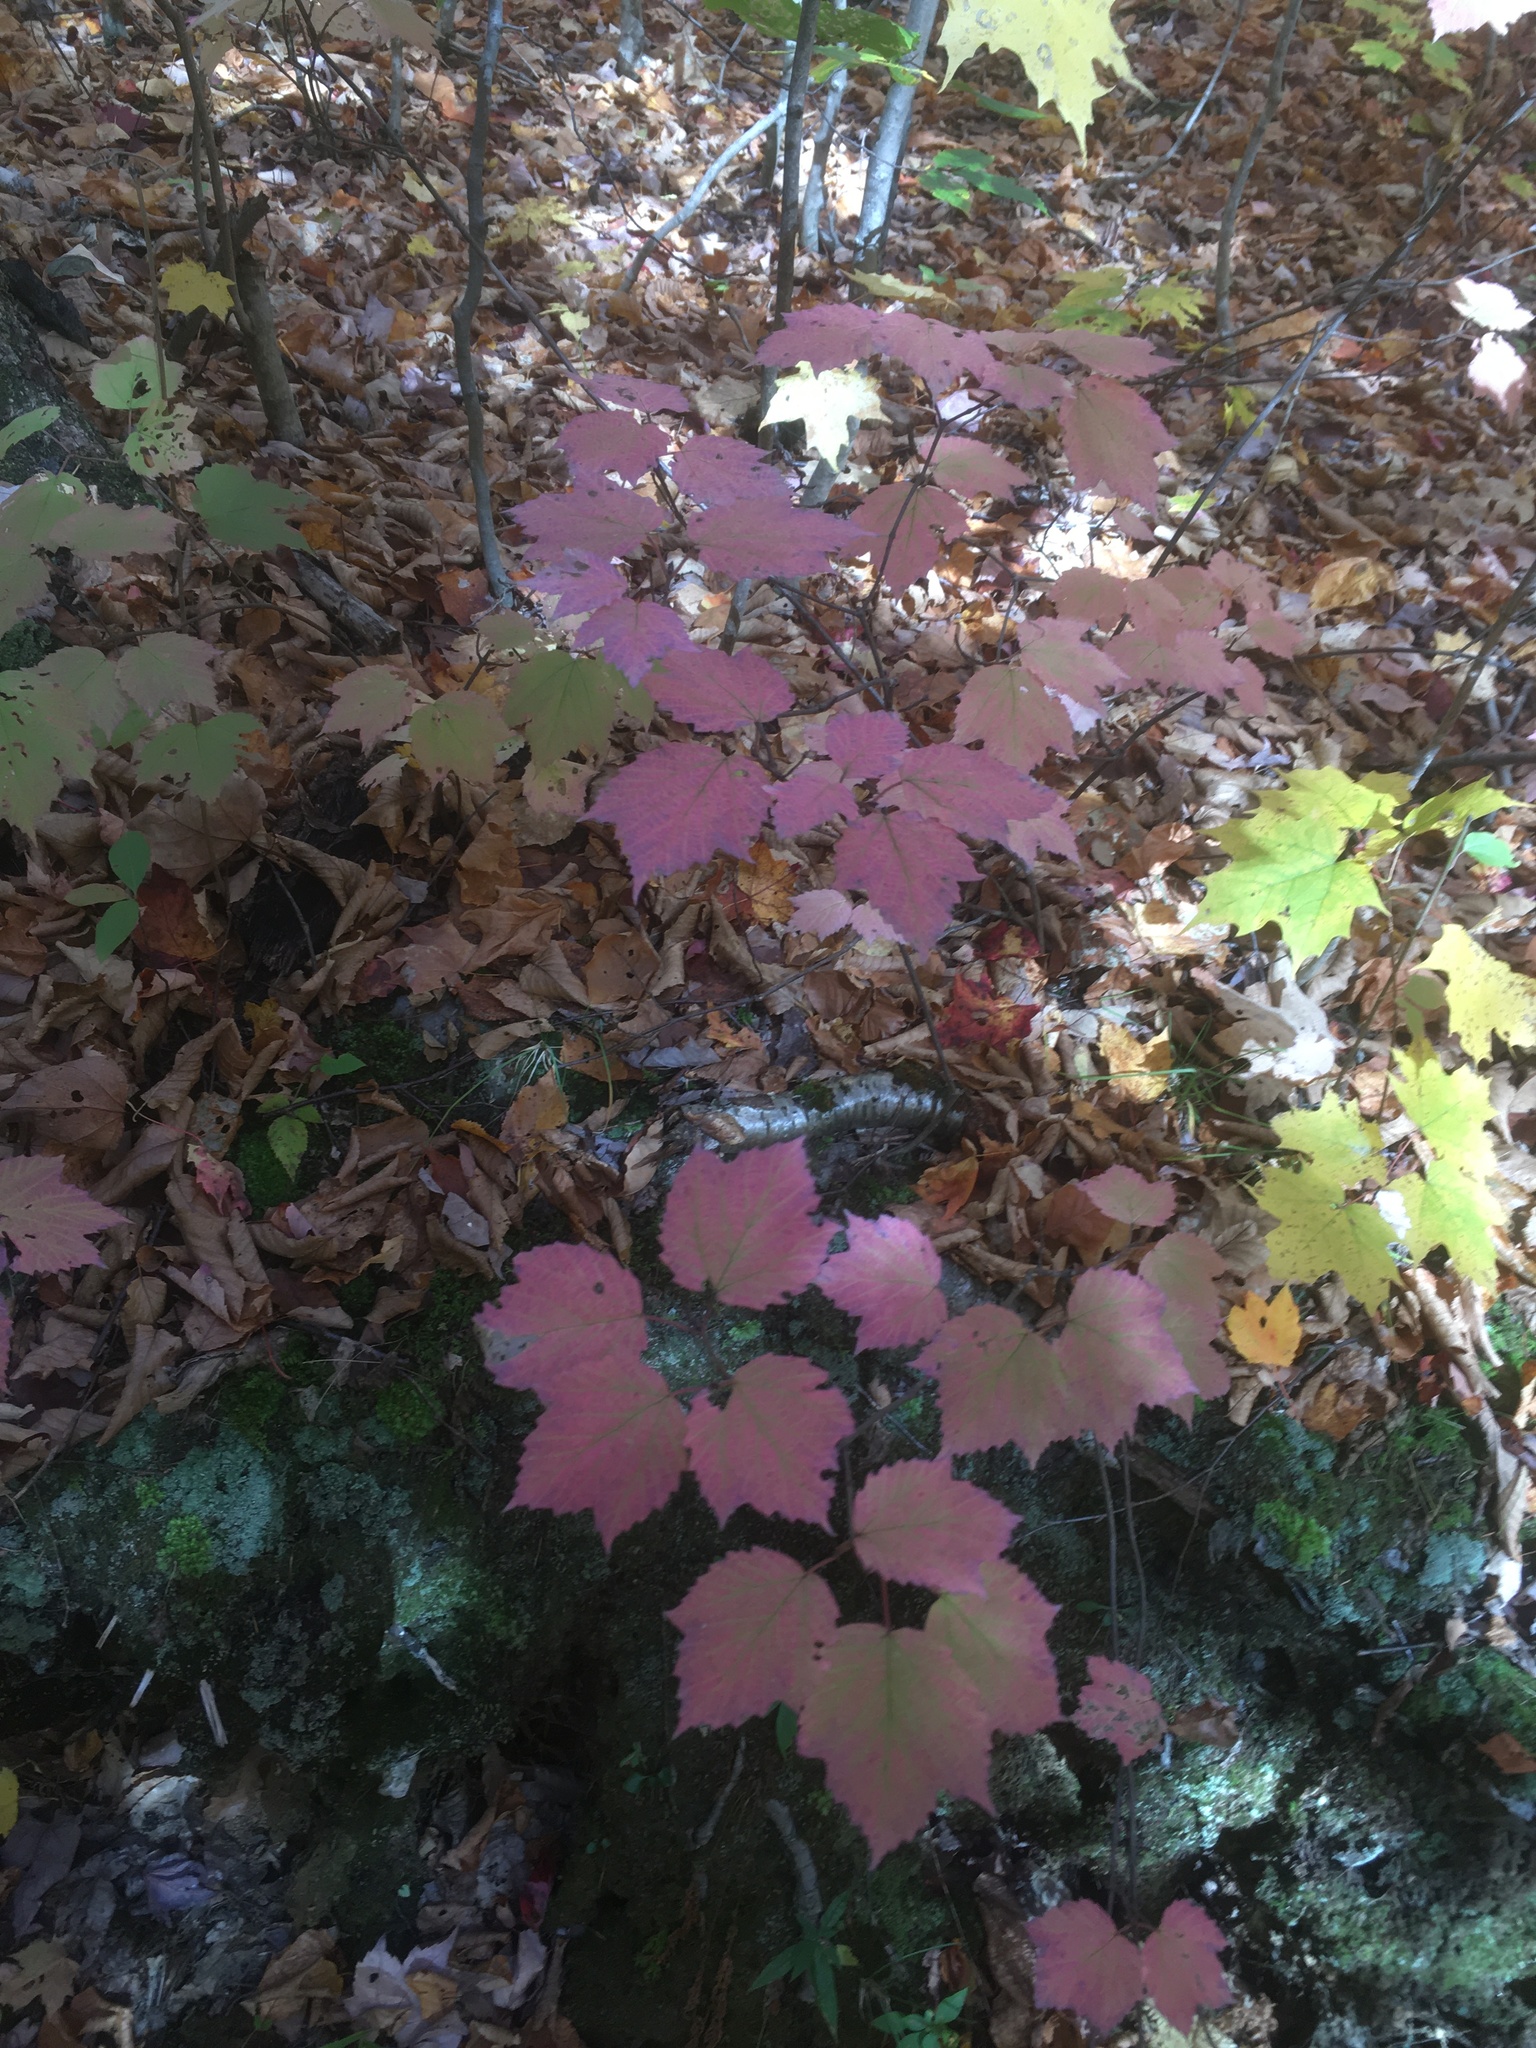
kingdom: Plantae
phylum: Tracheophyta
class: Magnoliopsida
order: Dipsacales
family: Viburnaceae
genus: Viburnum
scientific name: Viburnum acerifolium
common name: Dockmackie
